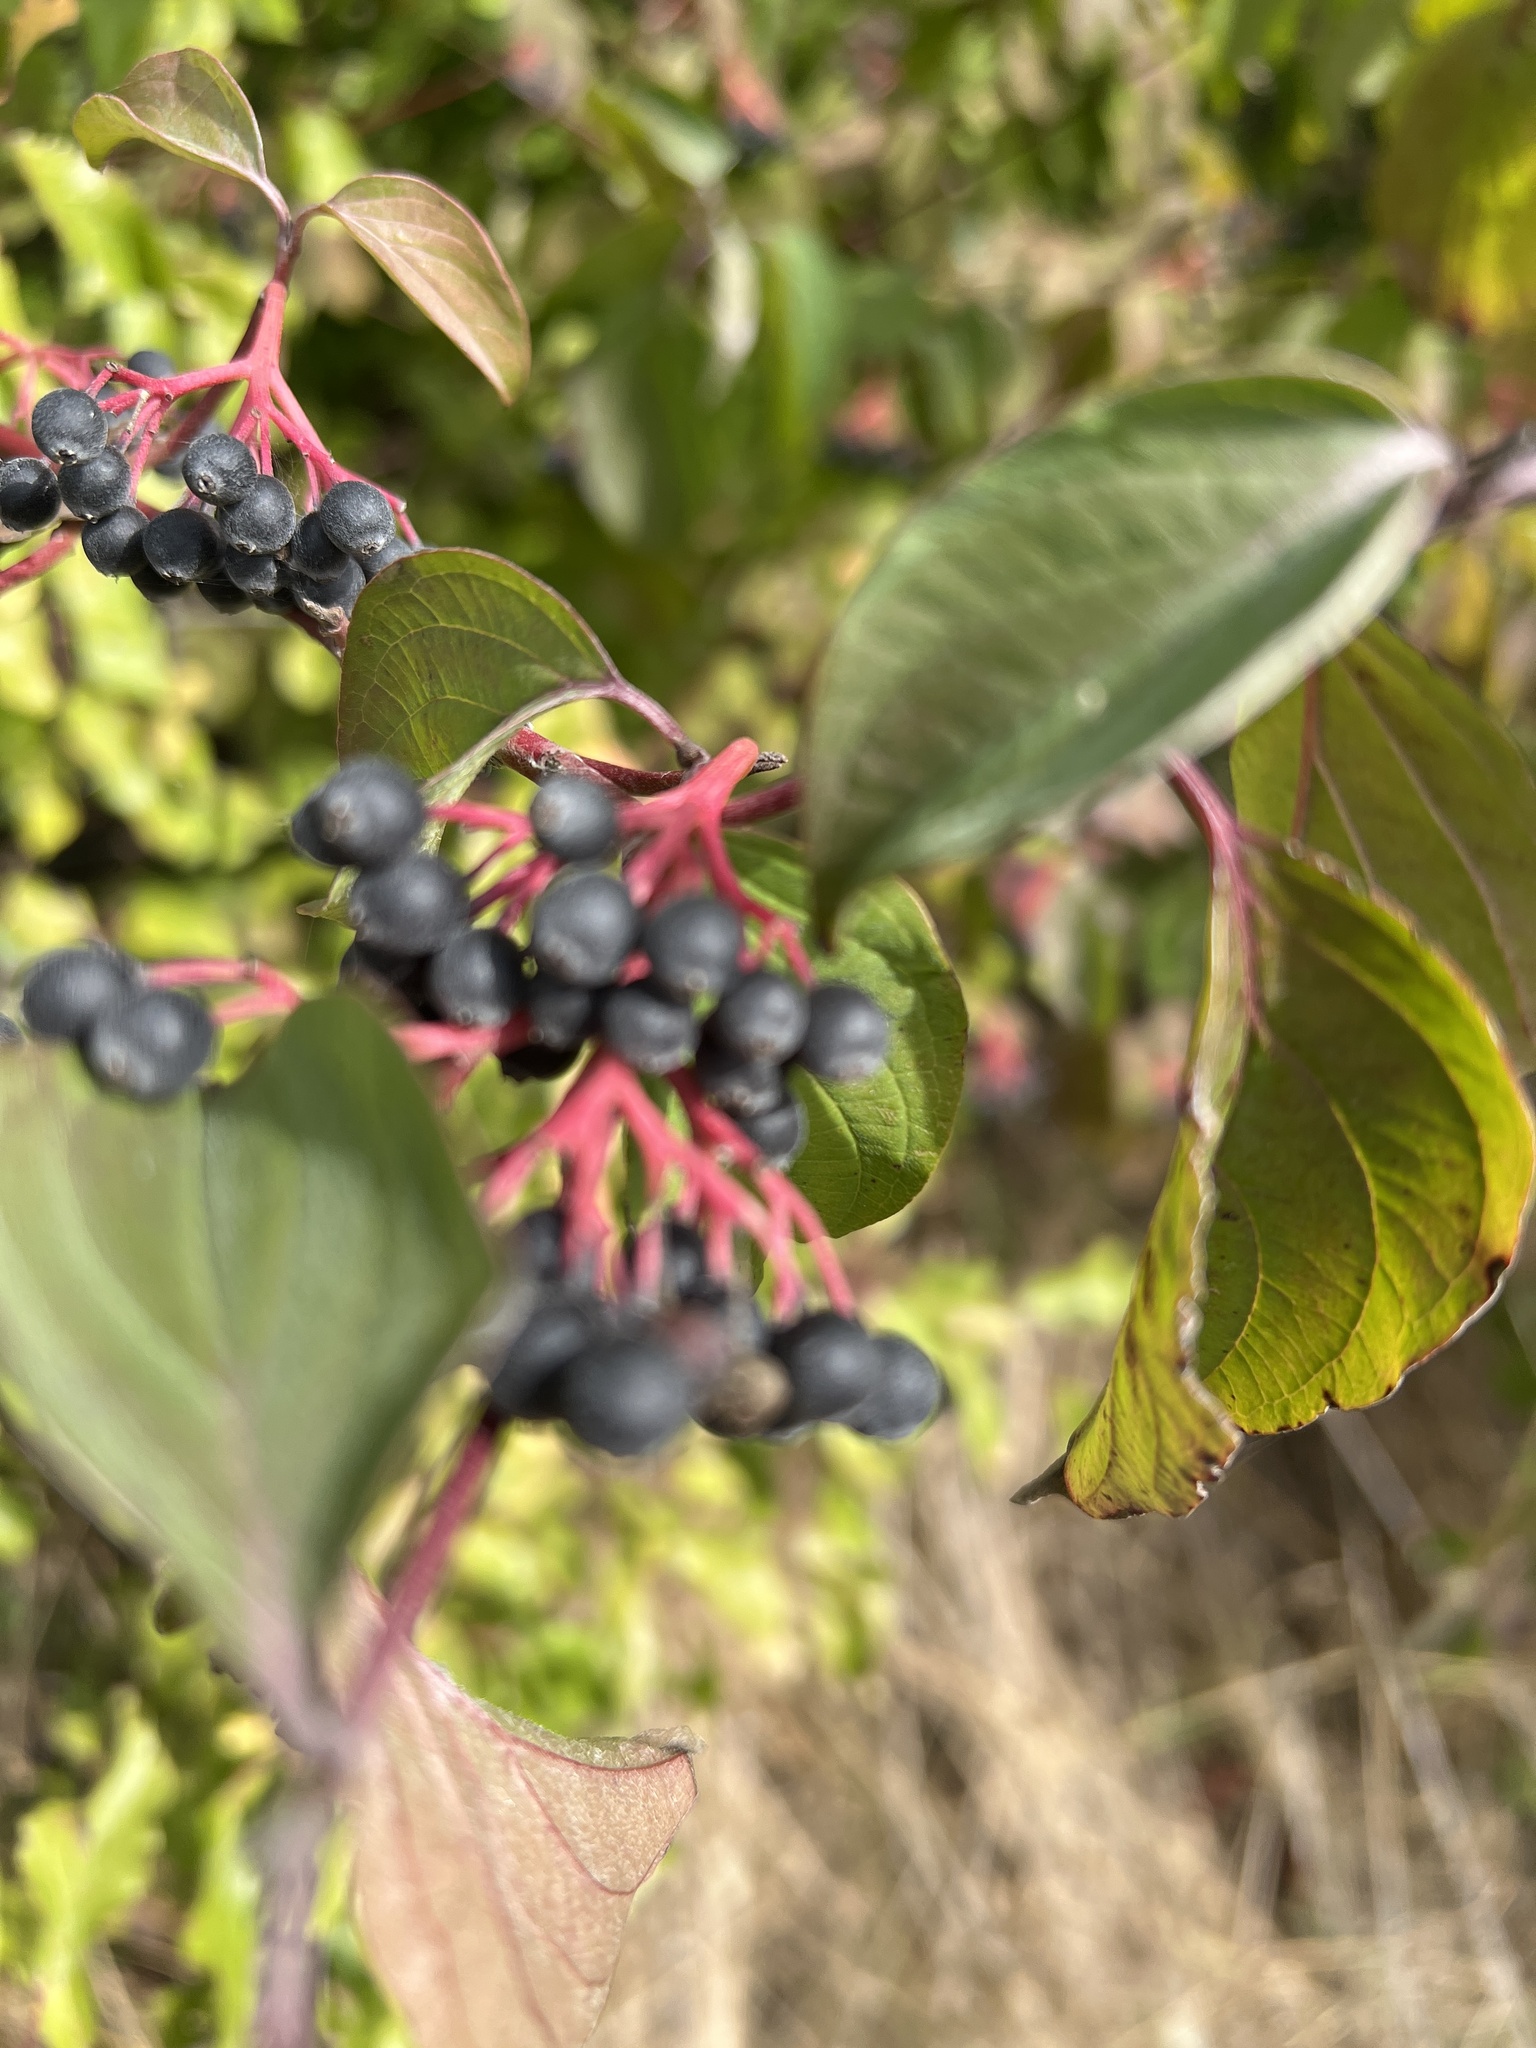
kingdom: Plantae
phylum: Tracheophyta
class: Magnoliopsida
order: Cornales
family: Cornaceae
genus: Cornus
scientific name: Cornus sanguinea
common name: Dogwood
